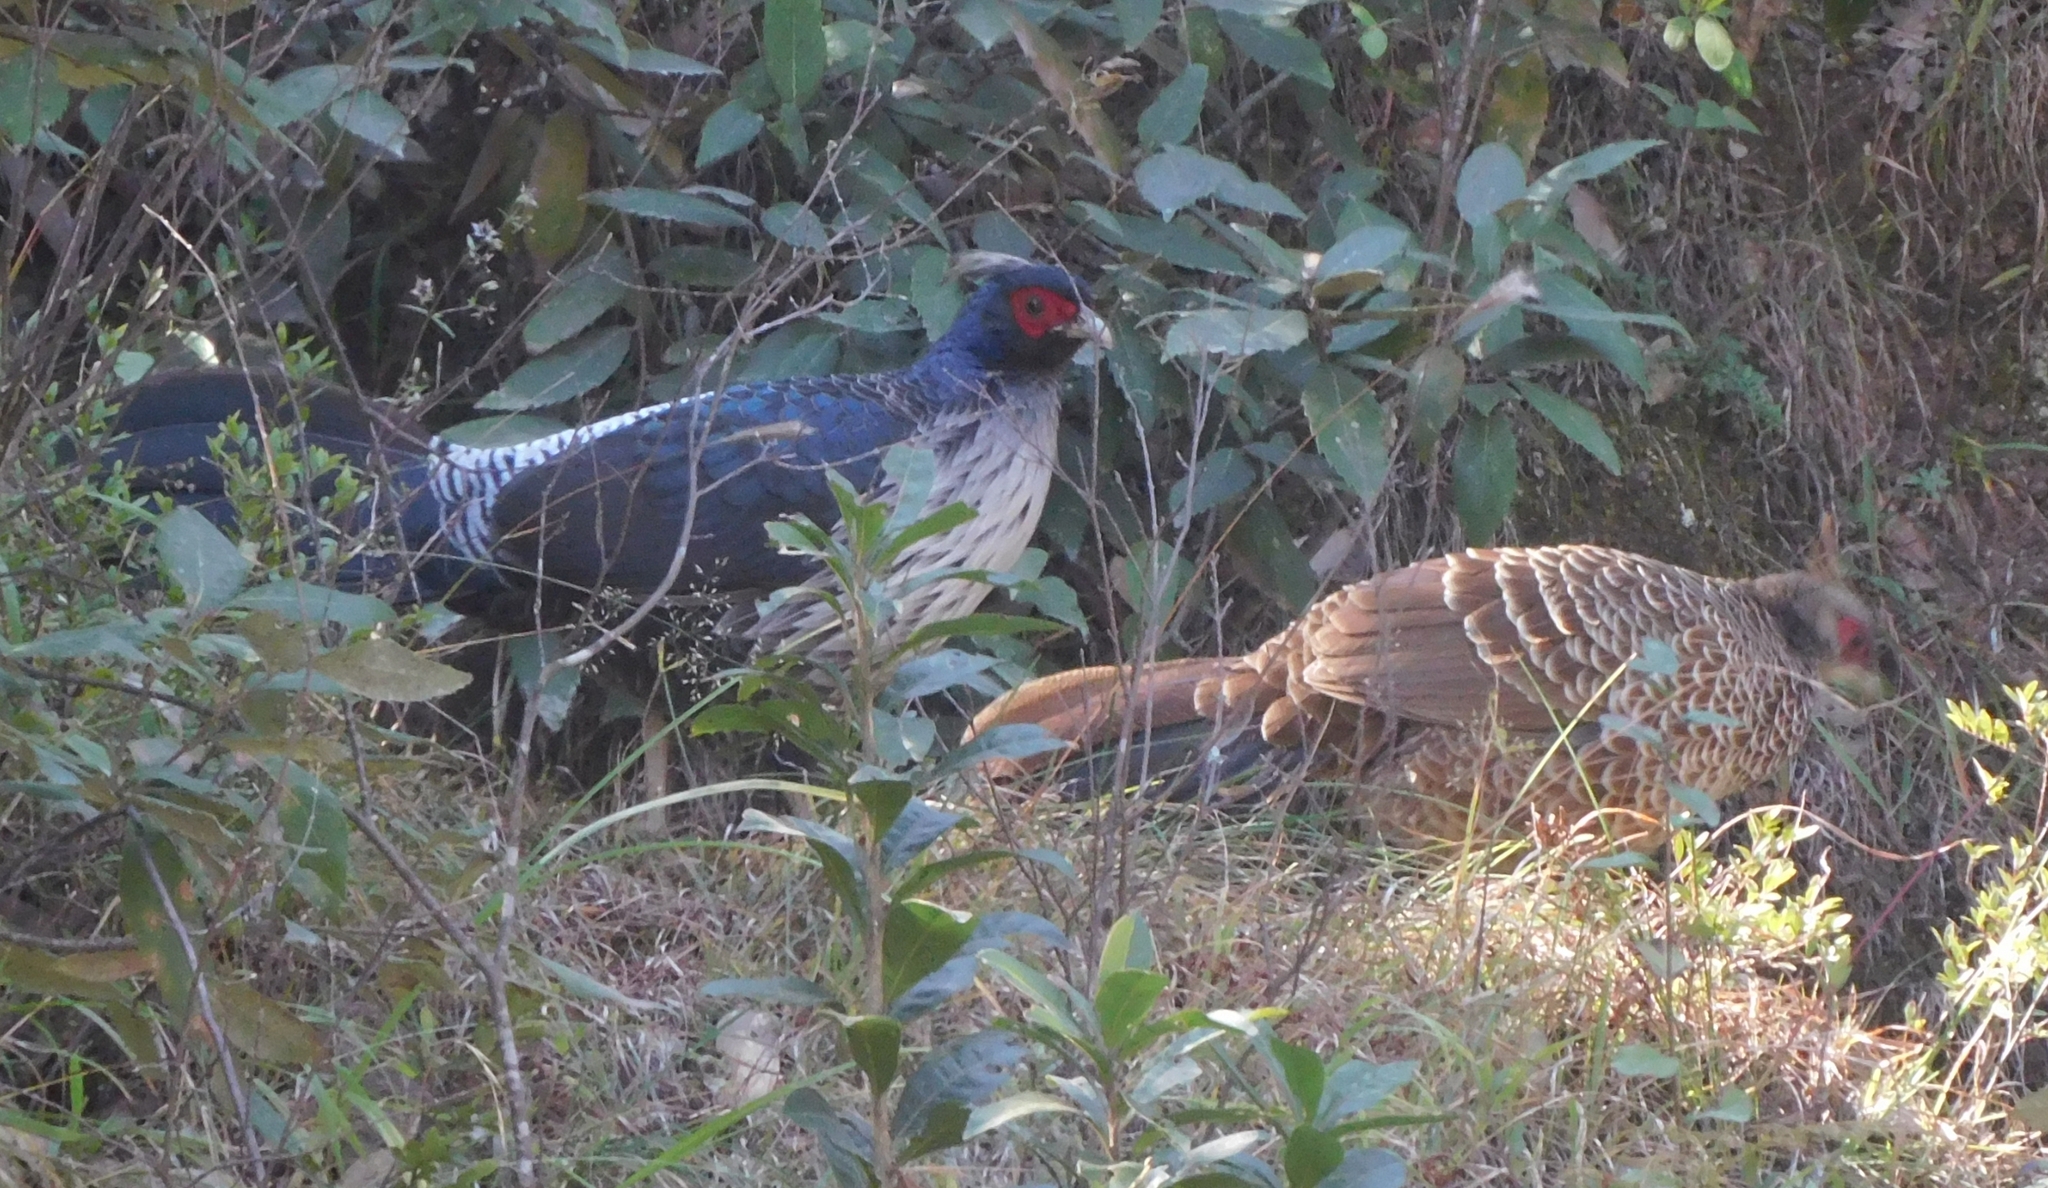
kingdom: Animalia
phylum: Chordata
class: Aves
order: Galliformes
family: Phasianidae
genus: Lophura
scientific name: Lophura leucomelanos
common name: Kalij pheasant
